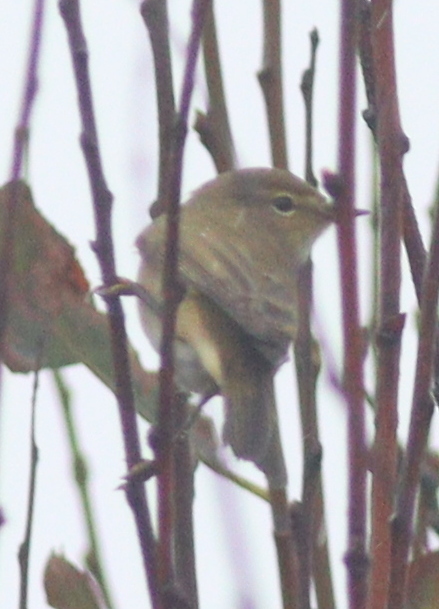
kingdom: Animalia
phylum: Chordata
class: Aves
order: Passeriformes
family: Phylloscopidae
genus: Phylloscopus
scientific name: Phylloscopus collybita
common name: Common chiffchaff
